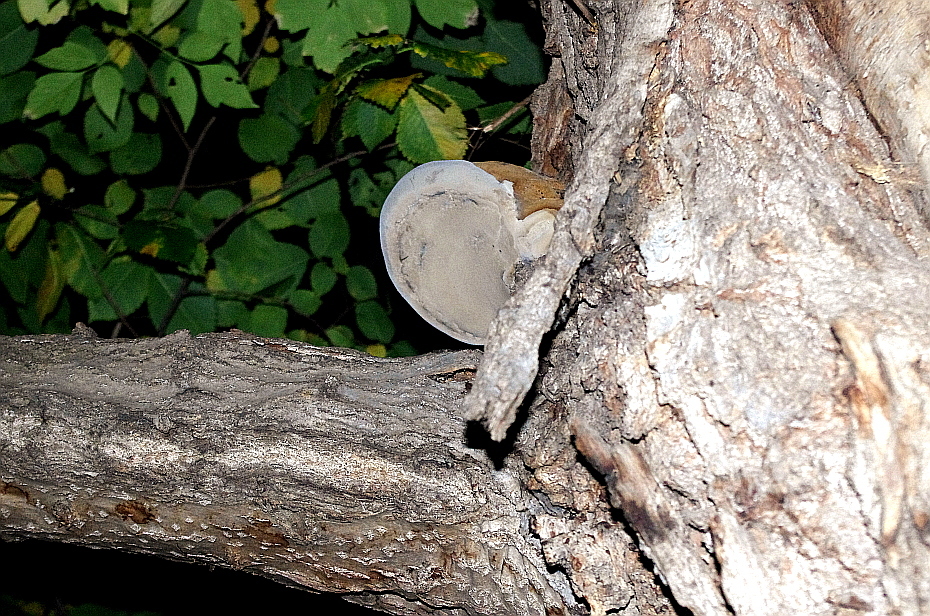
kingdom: Fungi
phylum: Basidiomycota
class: Agaricomycetes
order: Polyporales
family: Polyporaceae
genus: Fomes
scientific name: Fomes fomentarius
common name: Hoof fungus
